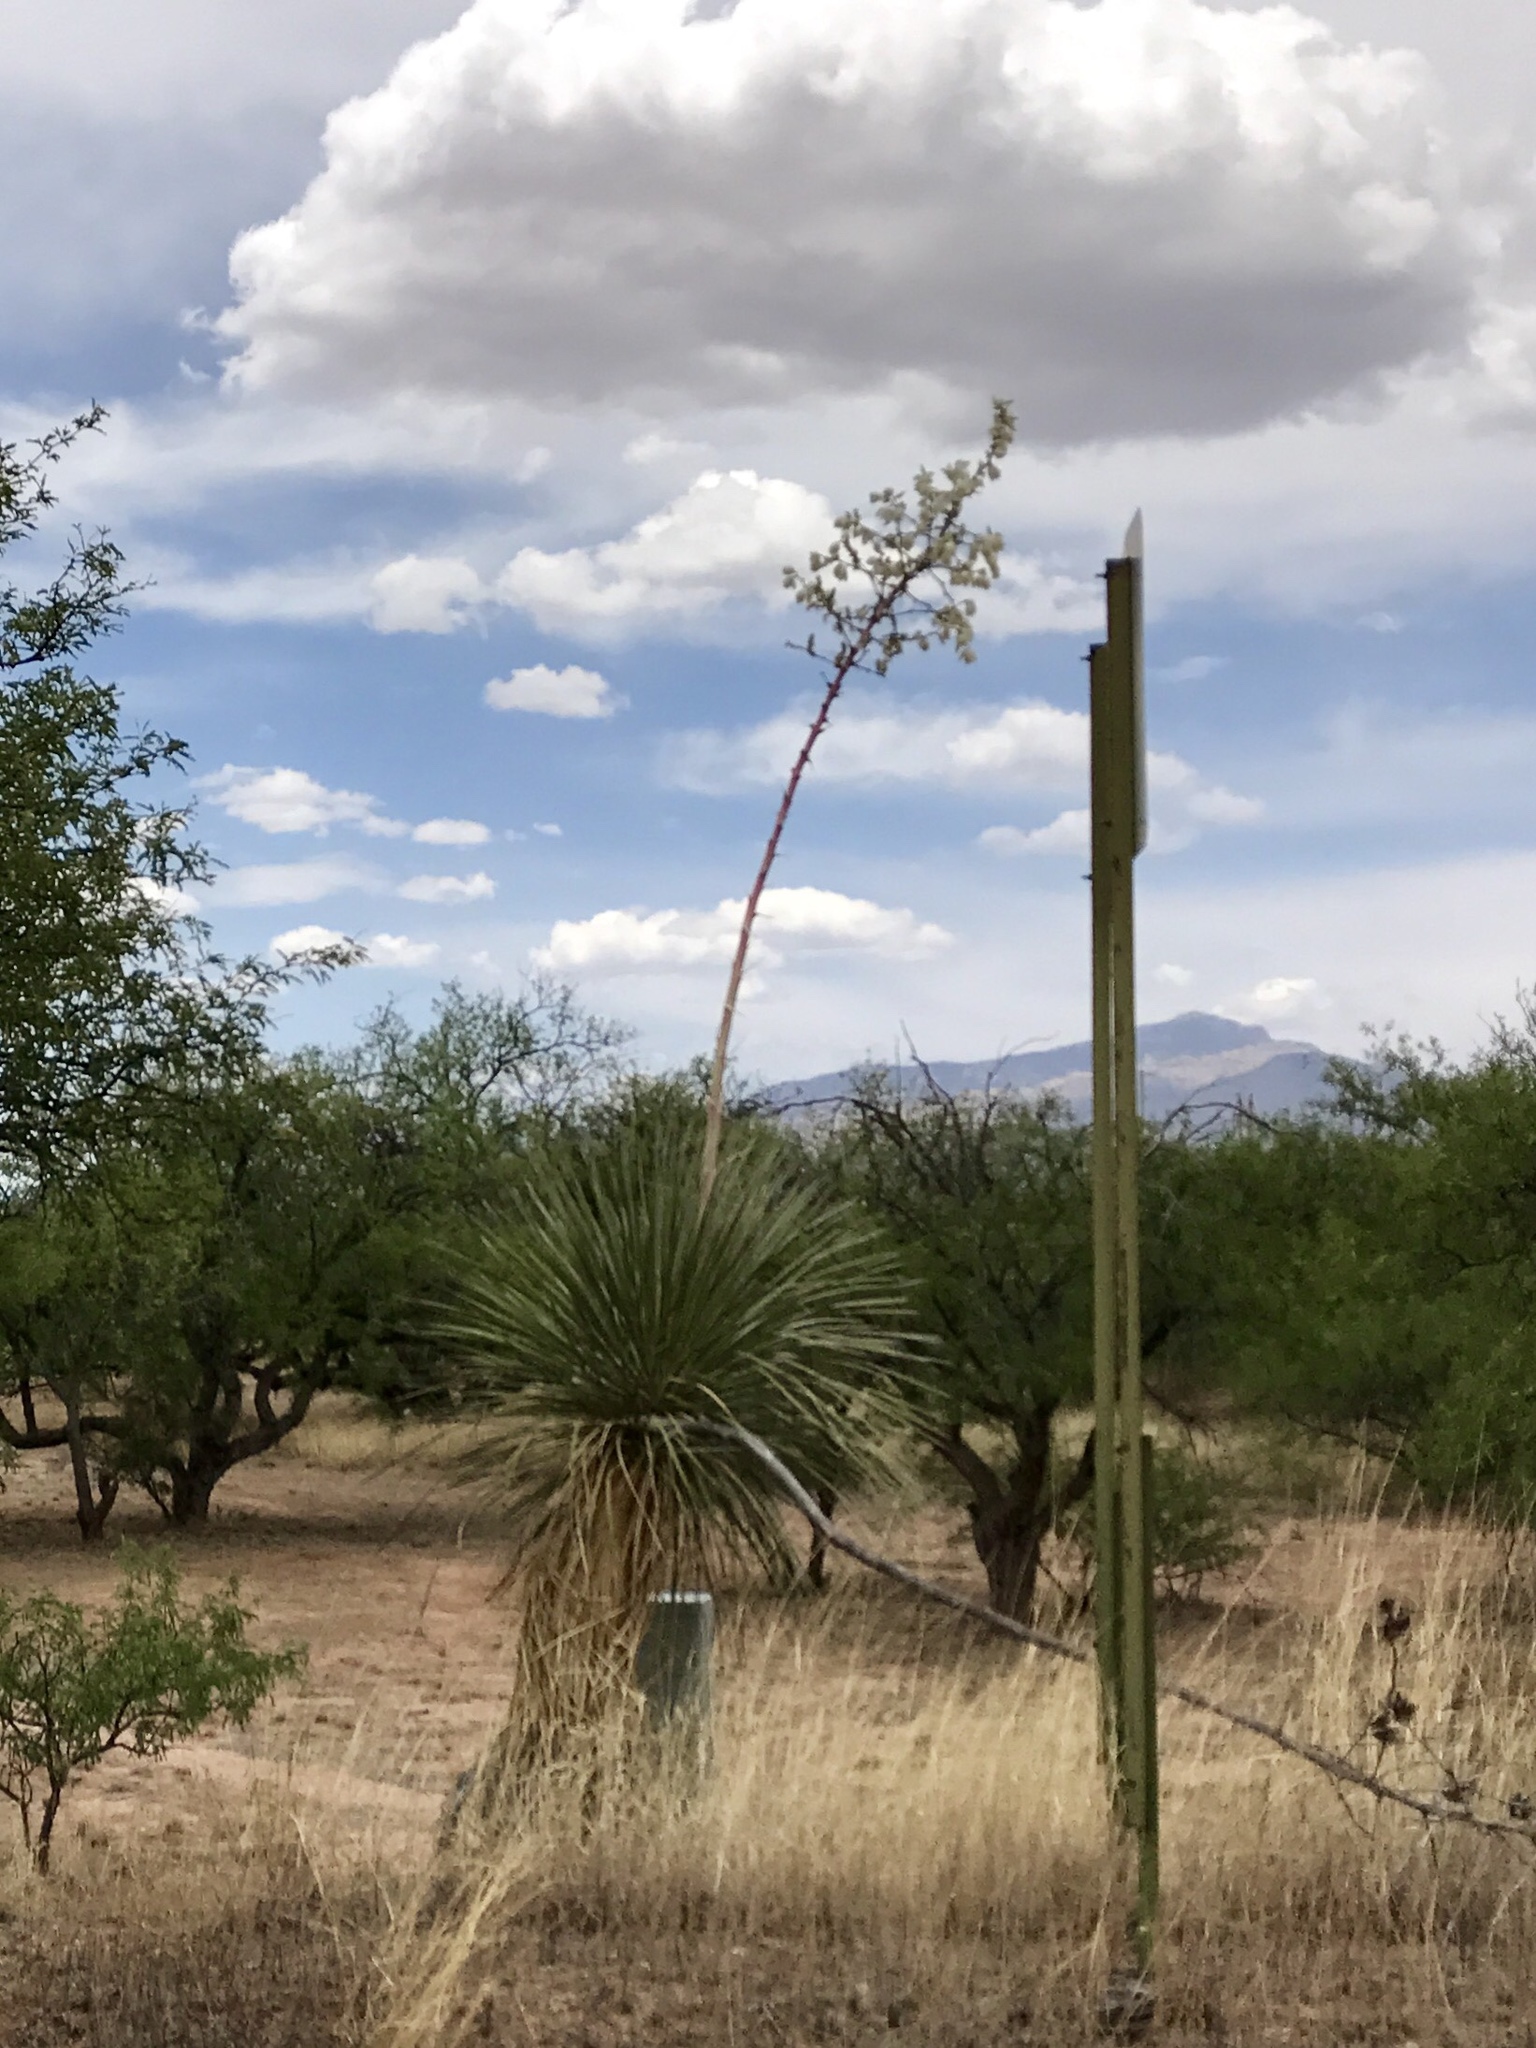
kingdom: Plantae
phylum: Tracheophyta
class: Liliopsida
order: Asparagales
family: Asparagaceae
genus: Yucca
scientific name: Yucca elata
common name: Palmella
